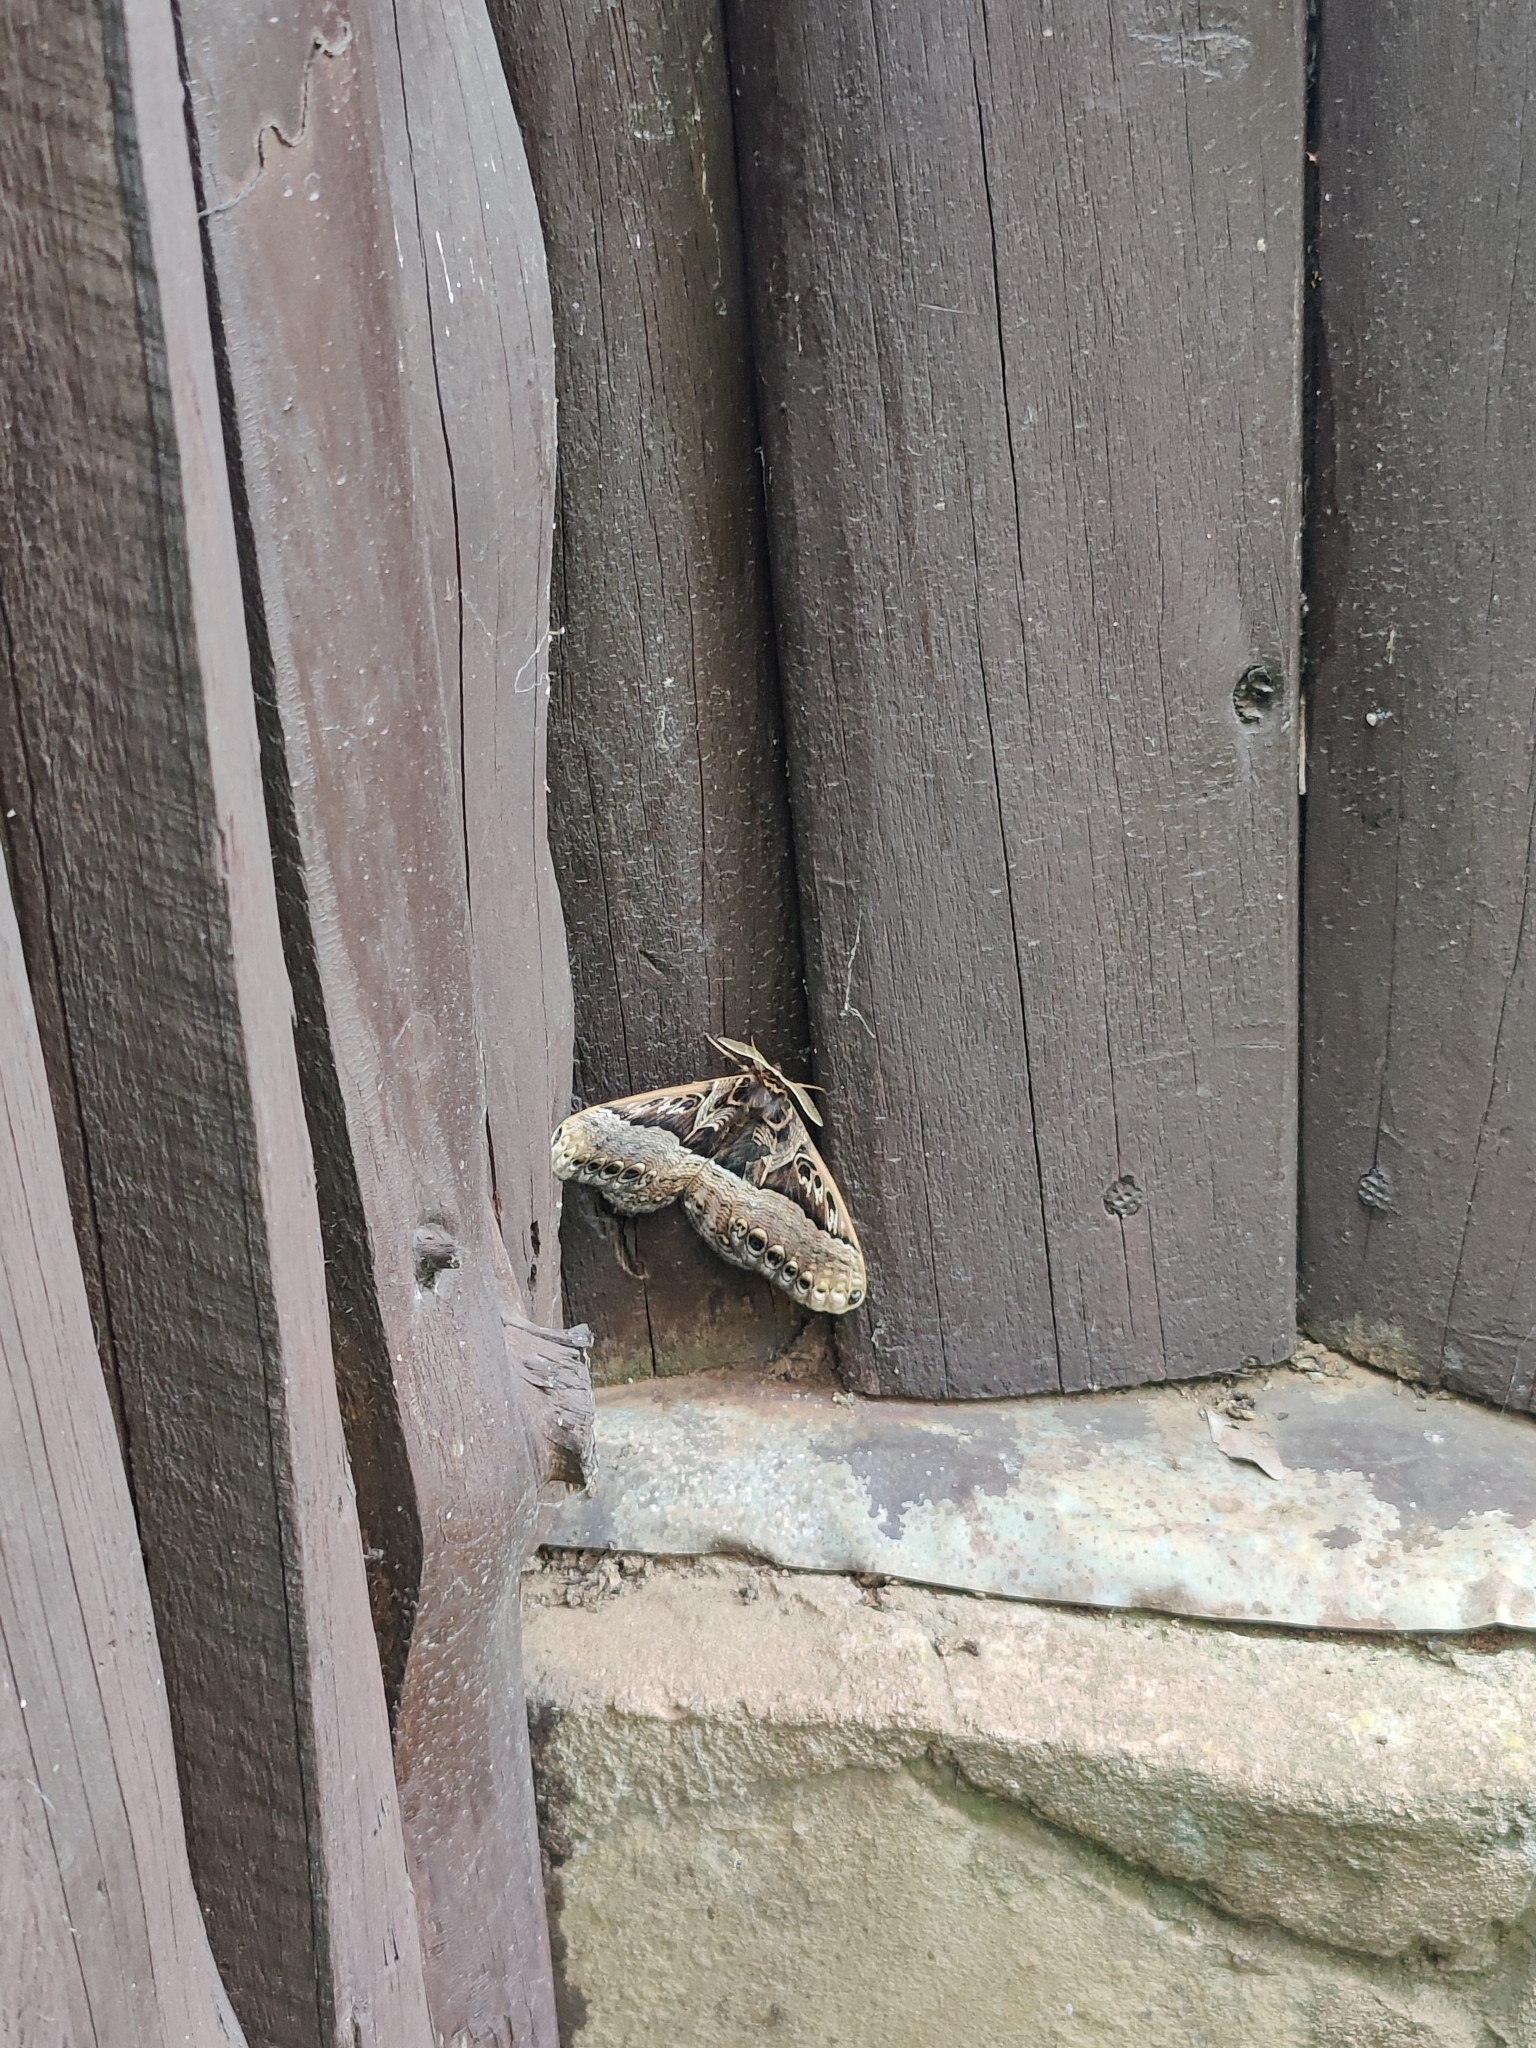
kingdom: Animalia
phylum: Arthropoda
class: Insecta
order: Lepidoptera
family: Brahmaeidae
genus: Dactyloceras
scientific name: Dactyloceras neumayeri
